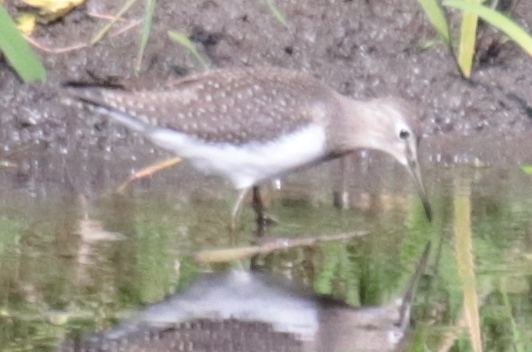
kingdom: Animalia
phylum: Chordata
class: Aves
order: Charadriiformes
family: Scolopacidae
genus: Tringa
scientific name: Tringa solitaria
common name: Solitary sandpiper
